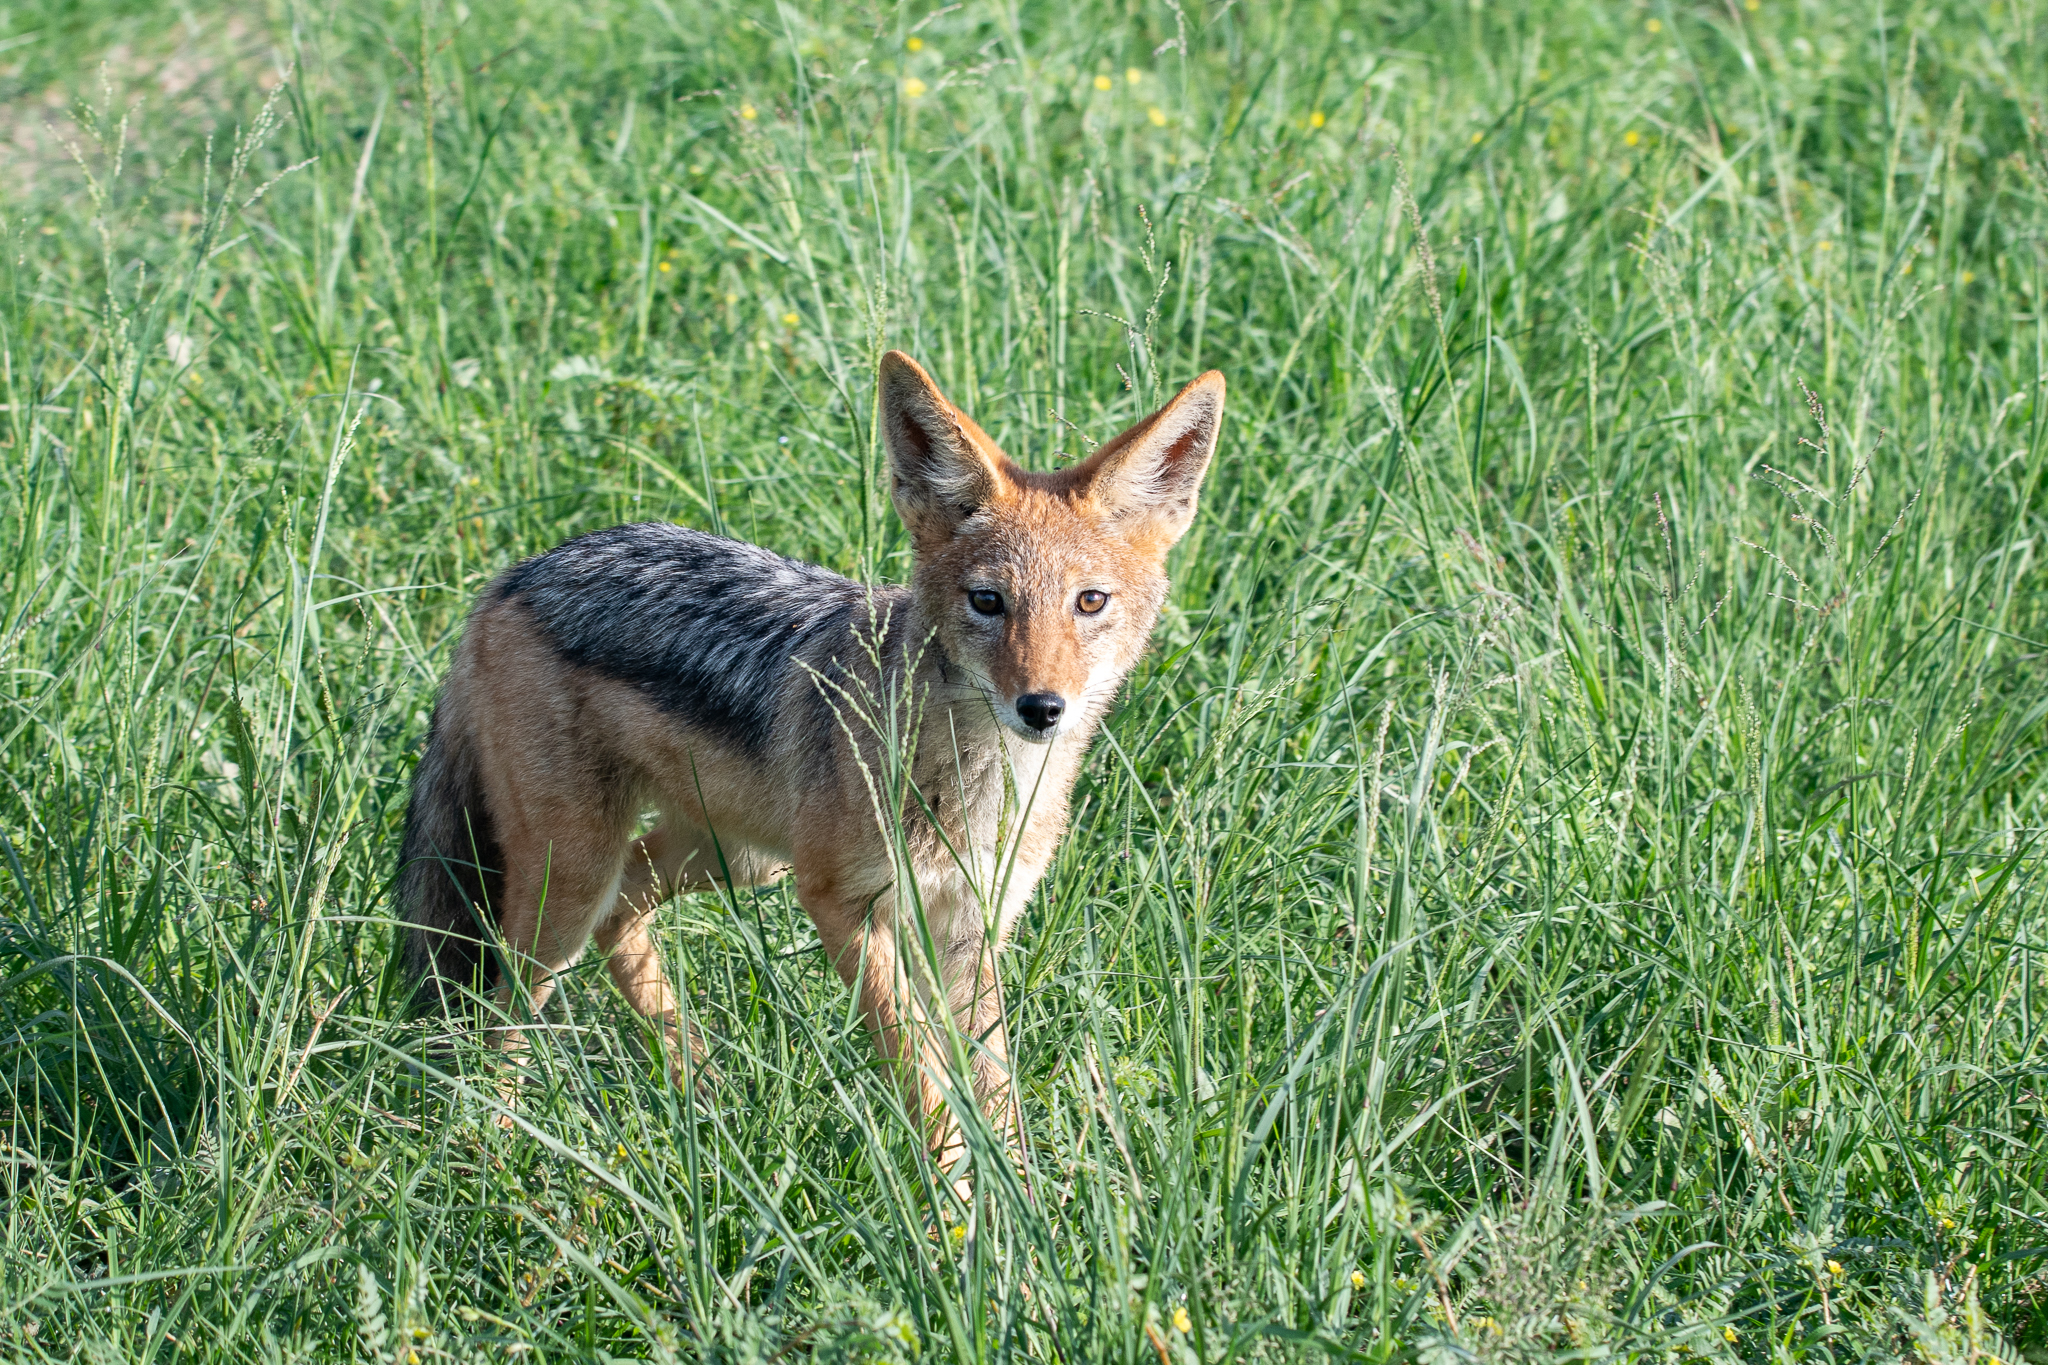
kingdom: Animalia
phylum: Chordata
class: Mammalia
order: Carnivora
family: Canidae
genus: Lupulella
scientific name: Lupulella
